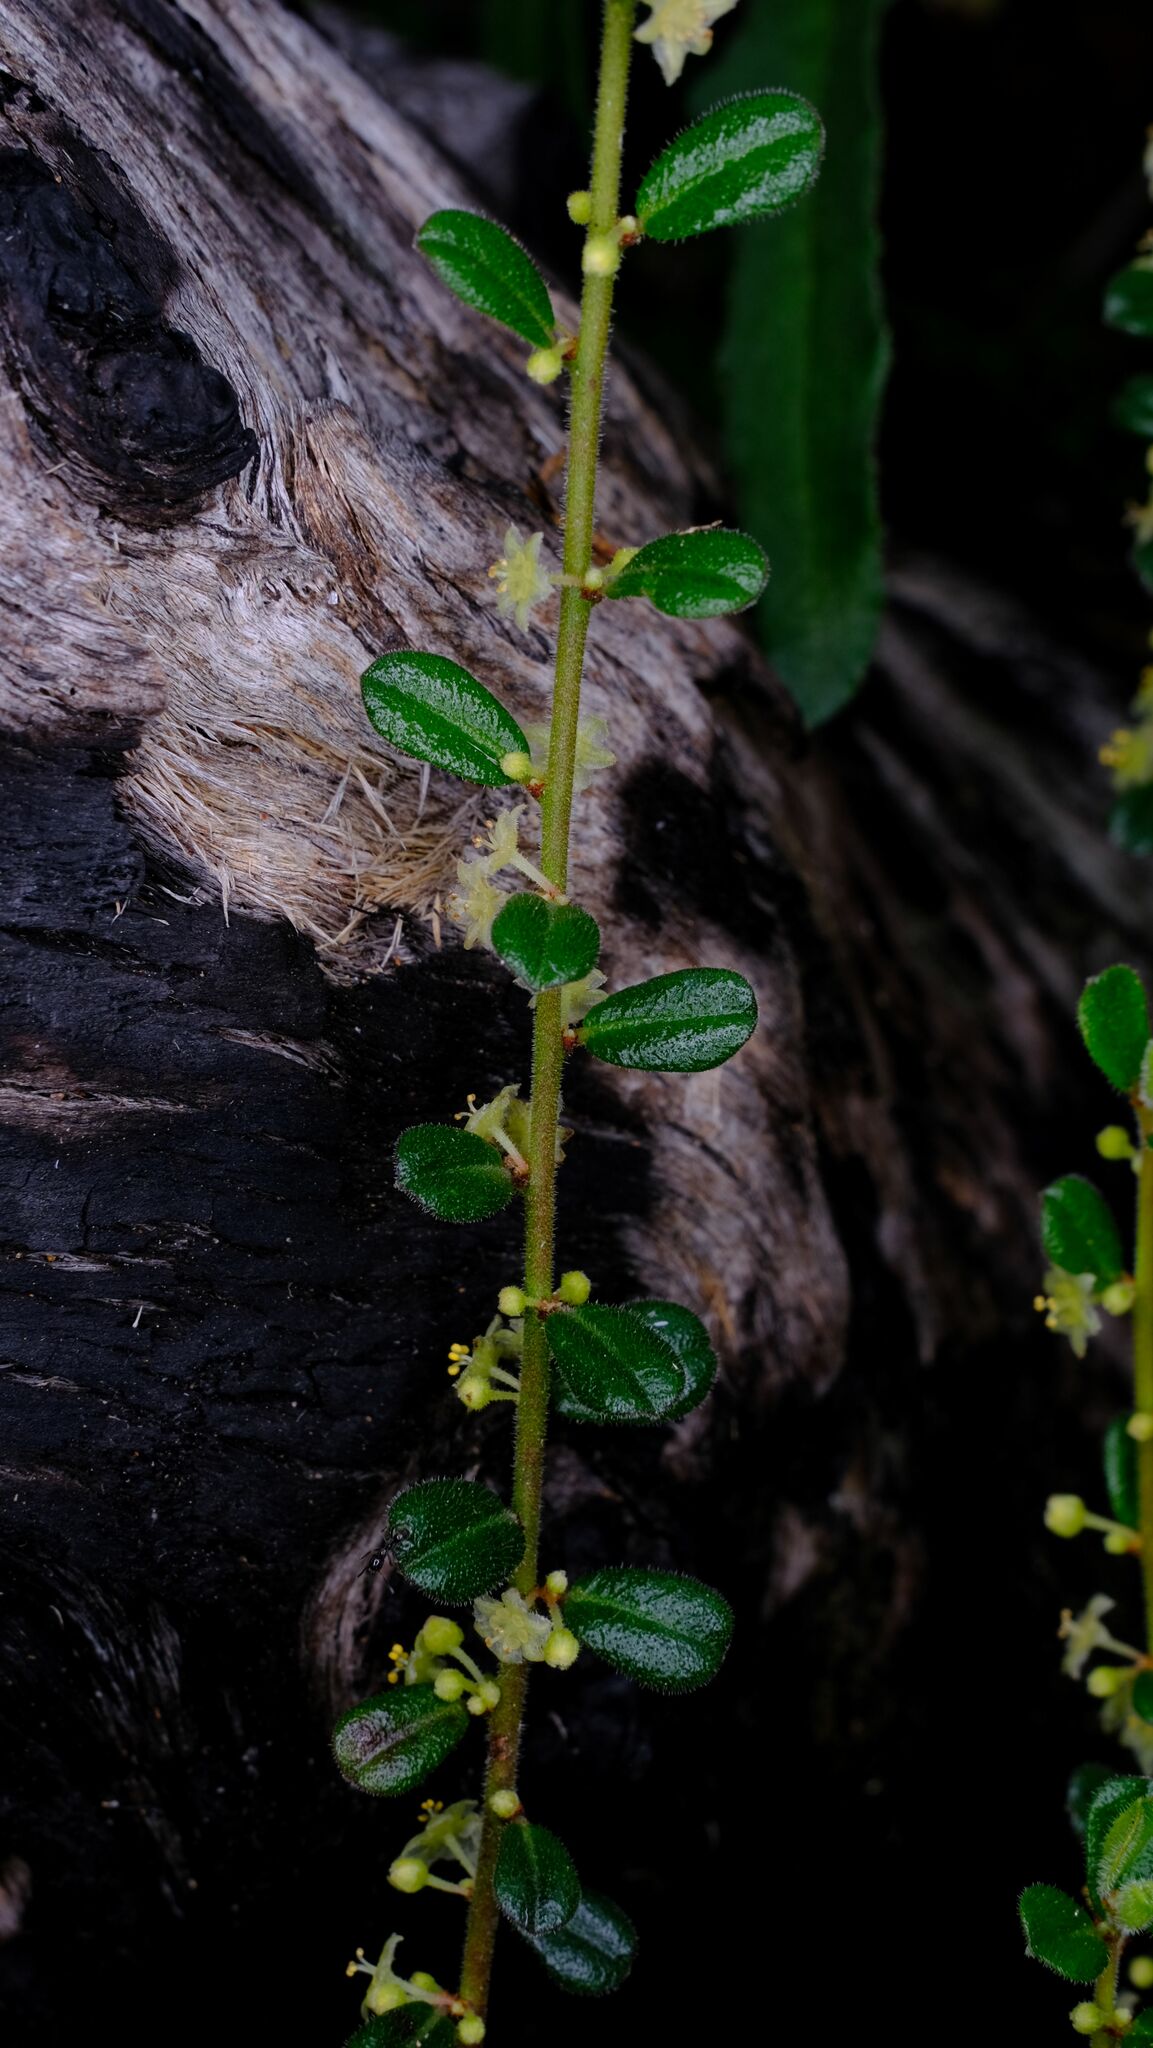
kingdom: Plantae
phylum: Tracheophyta
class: Magnoliopsida
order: Malpighiales
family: Phyllanthaceae
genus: Phyllanthus
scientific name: Phyllanthus hirtellus
